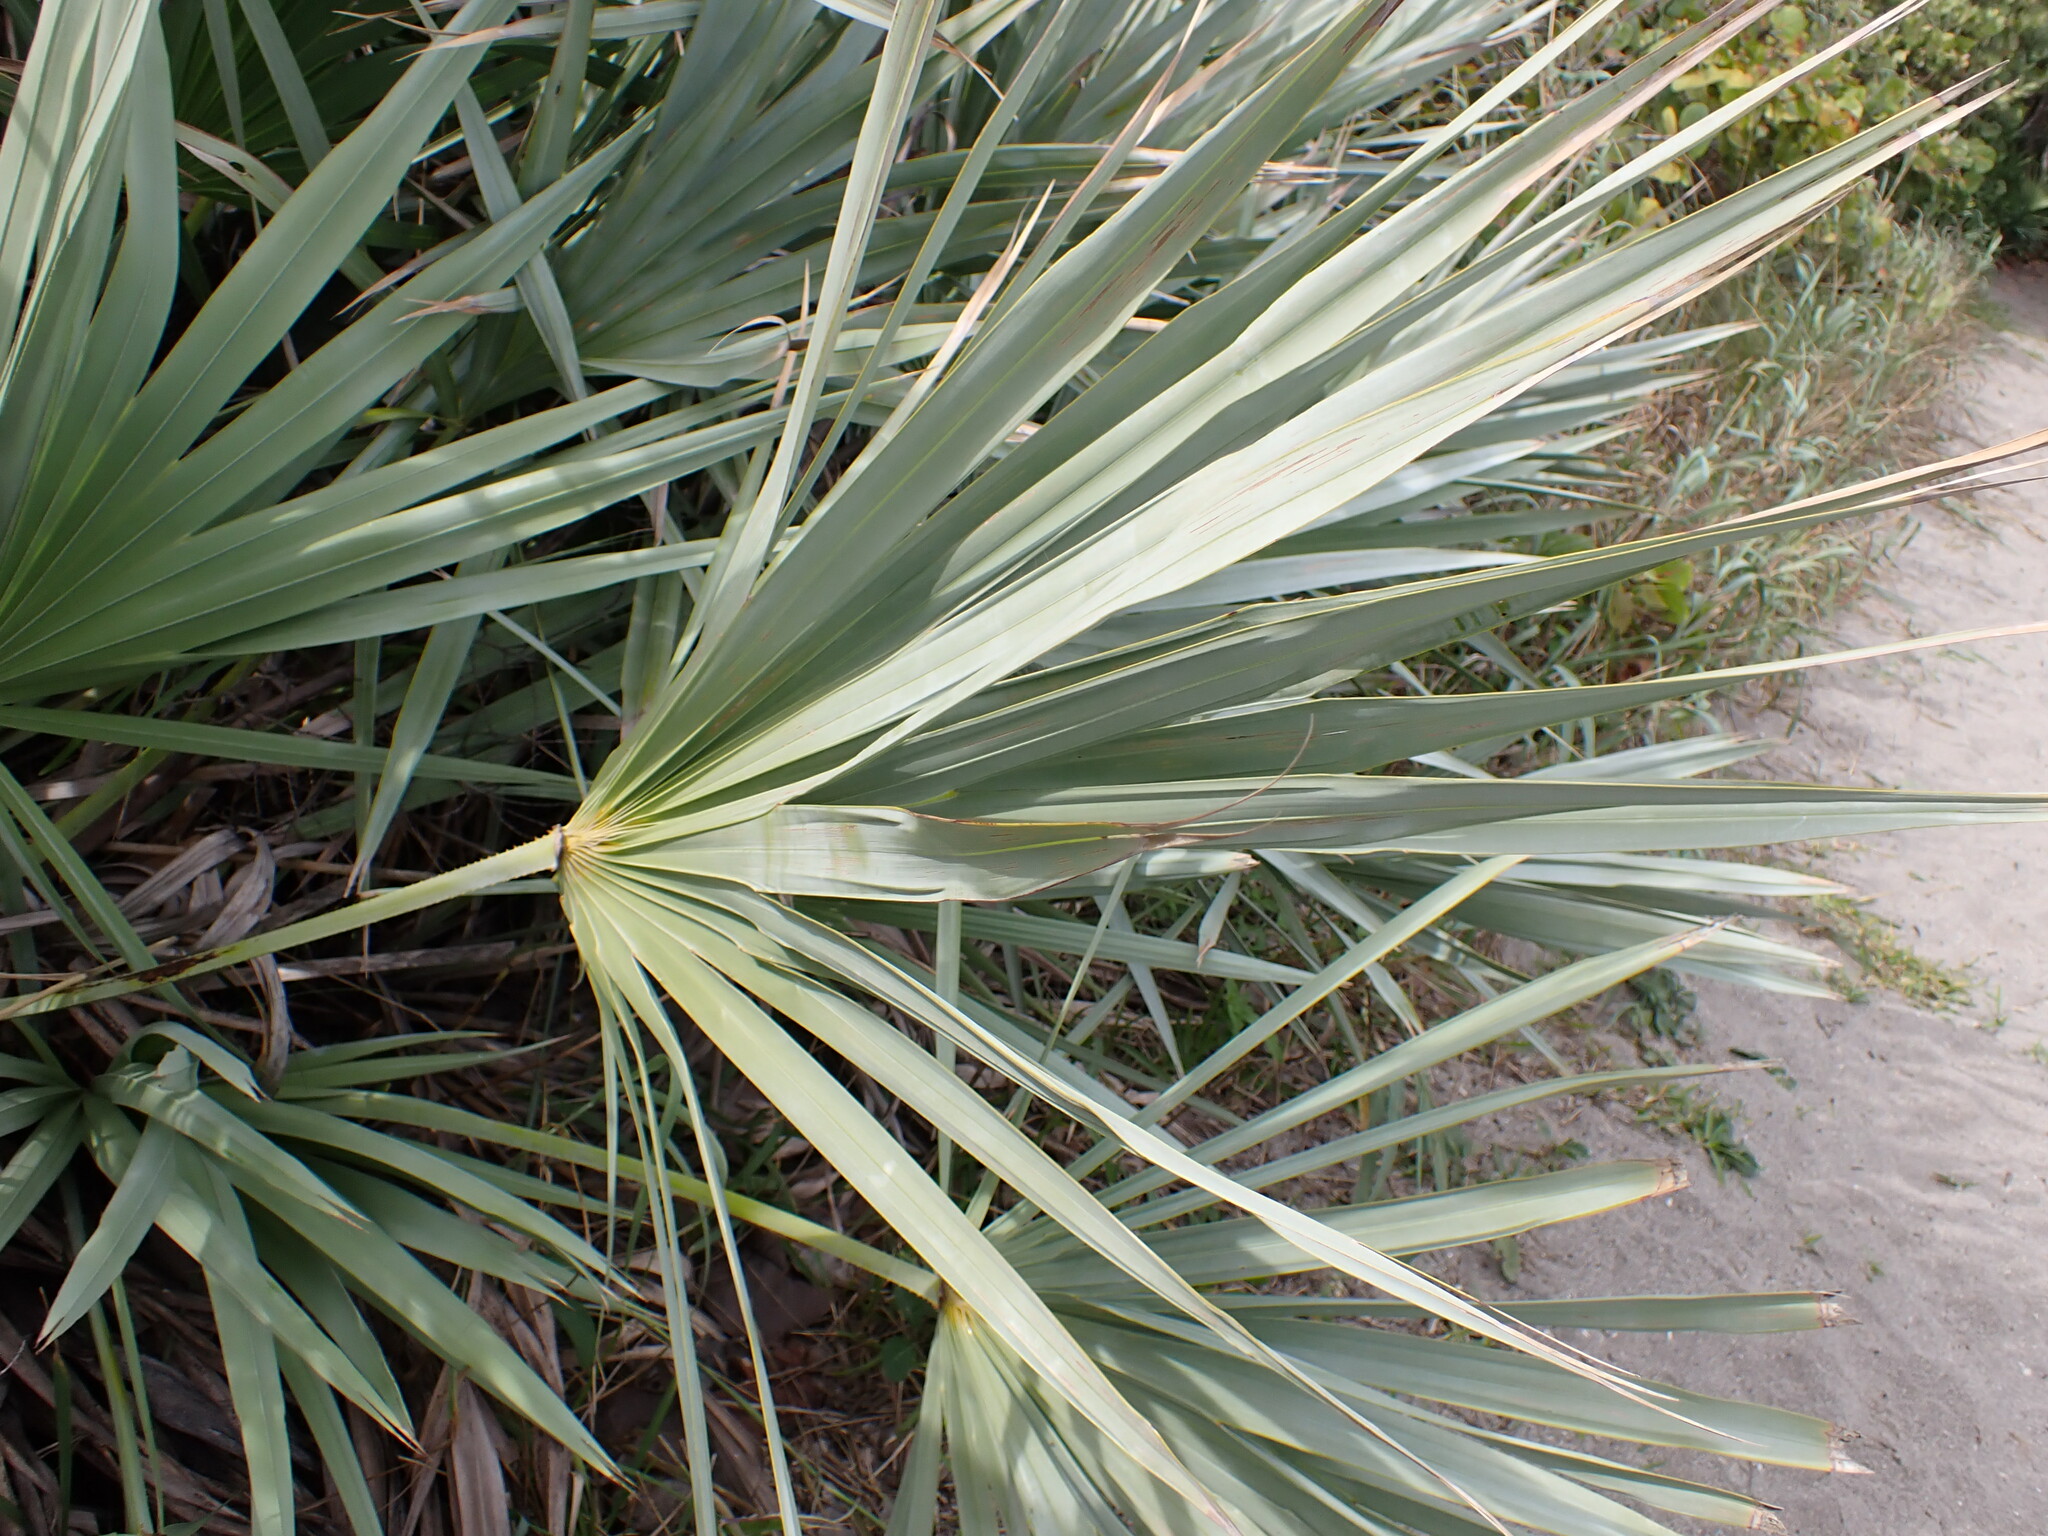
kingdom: Plantae
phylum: Tracheophyta
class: Liliopsida
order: Arecales
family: Arecaceae
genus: Serenoa
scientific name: Serenoa repens
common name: Saw-palmetto
